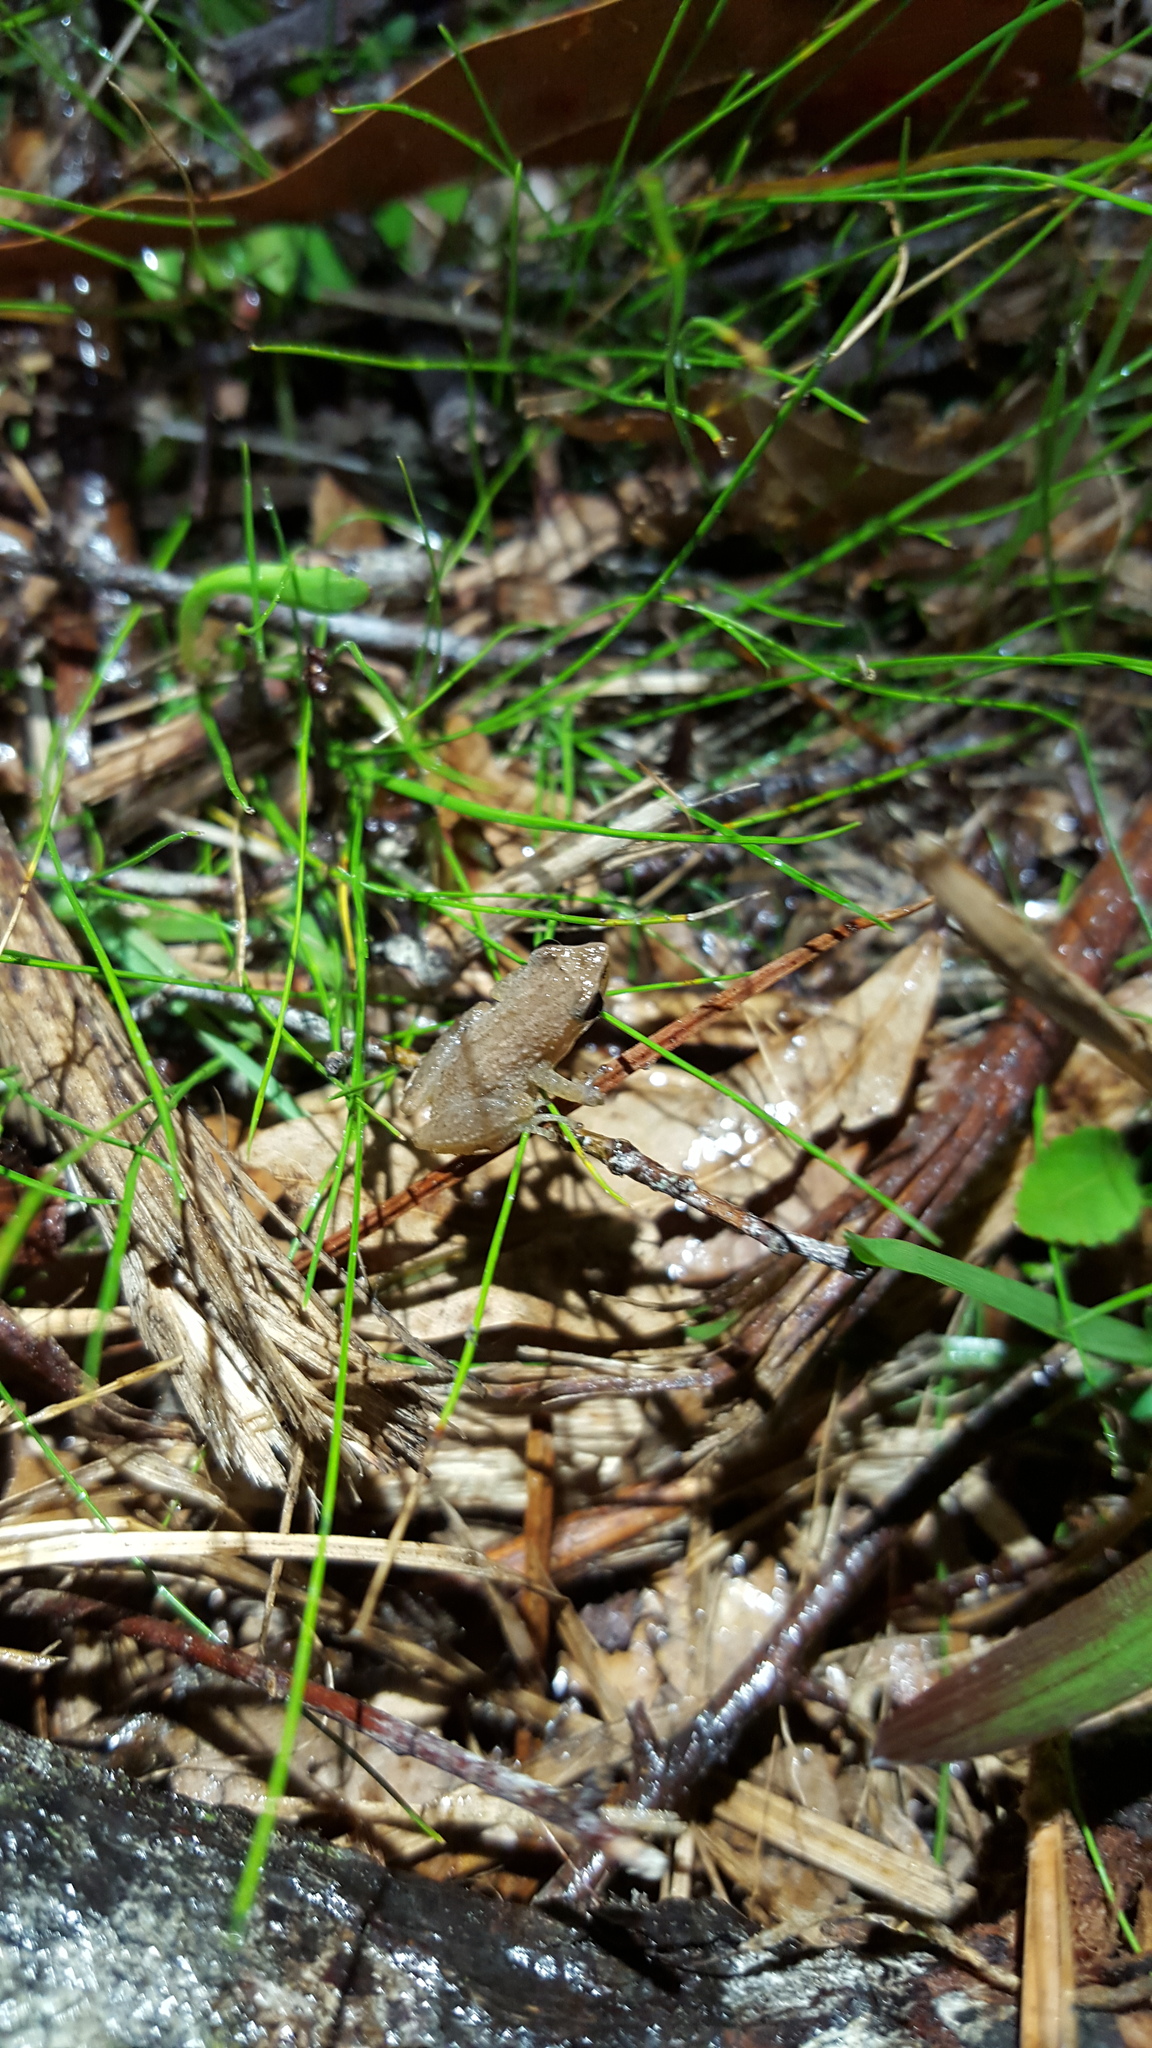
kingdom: Animalia
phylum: Chordata
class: Amphibia
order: Anura
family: Hylidae
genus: Pseudacris
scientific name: Pseudacris ocularis
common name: Little grass frog
